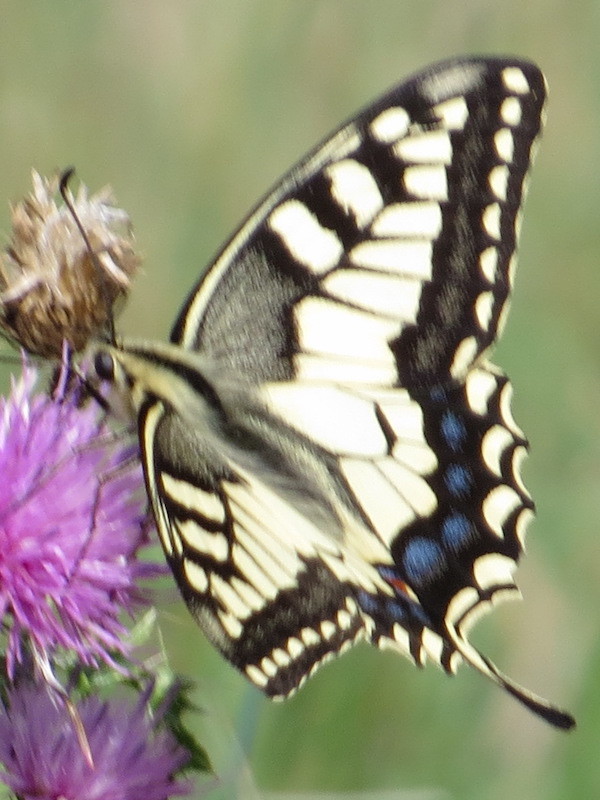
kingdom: Animalia
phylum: Arthropoda
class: Insecta
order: Lepidoptera
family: Papilionidae
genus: Papilio
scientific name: Papilio machaon
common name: Swallowtail
